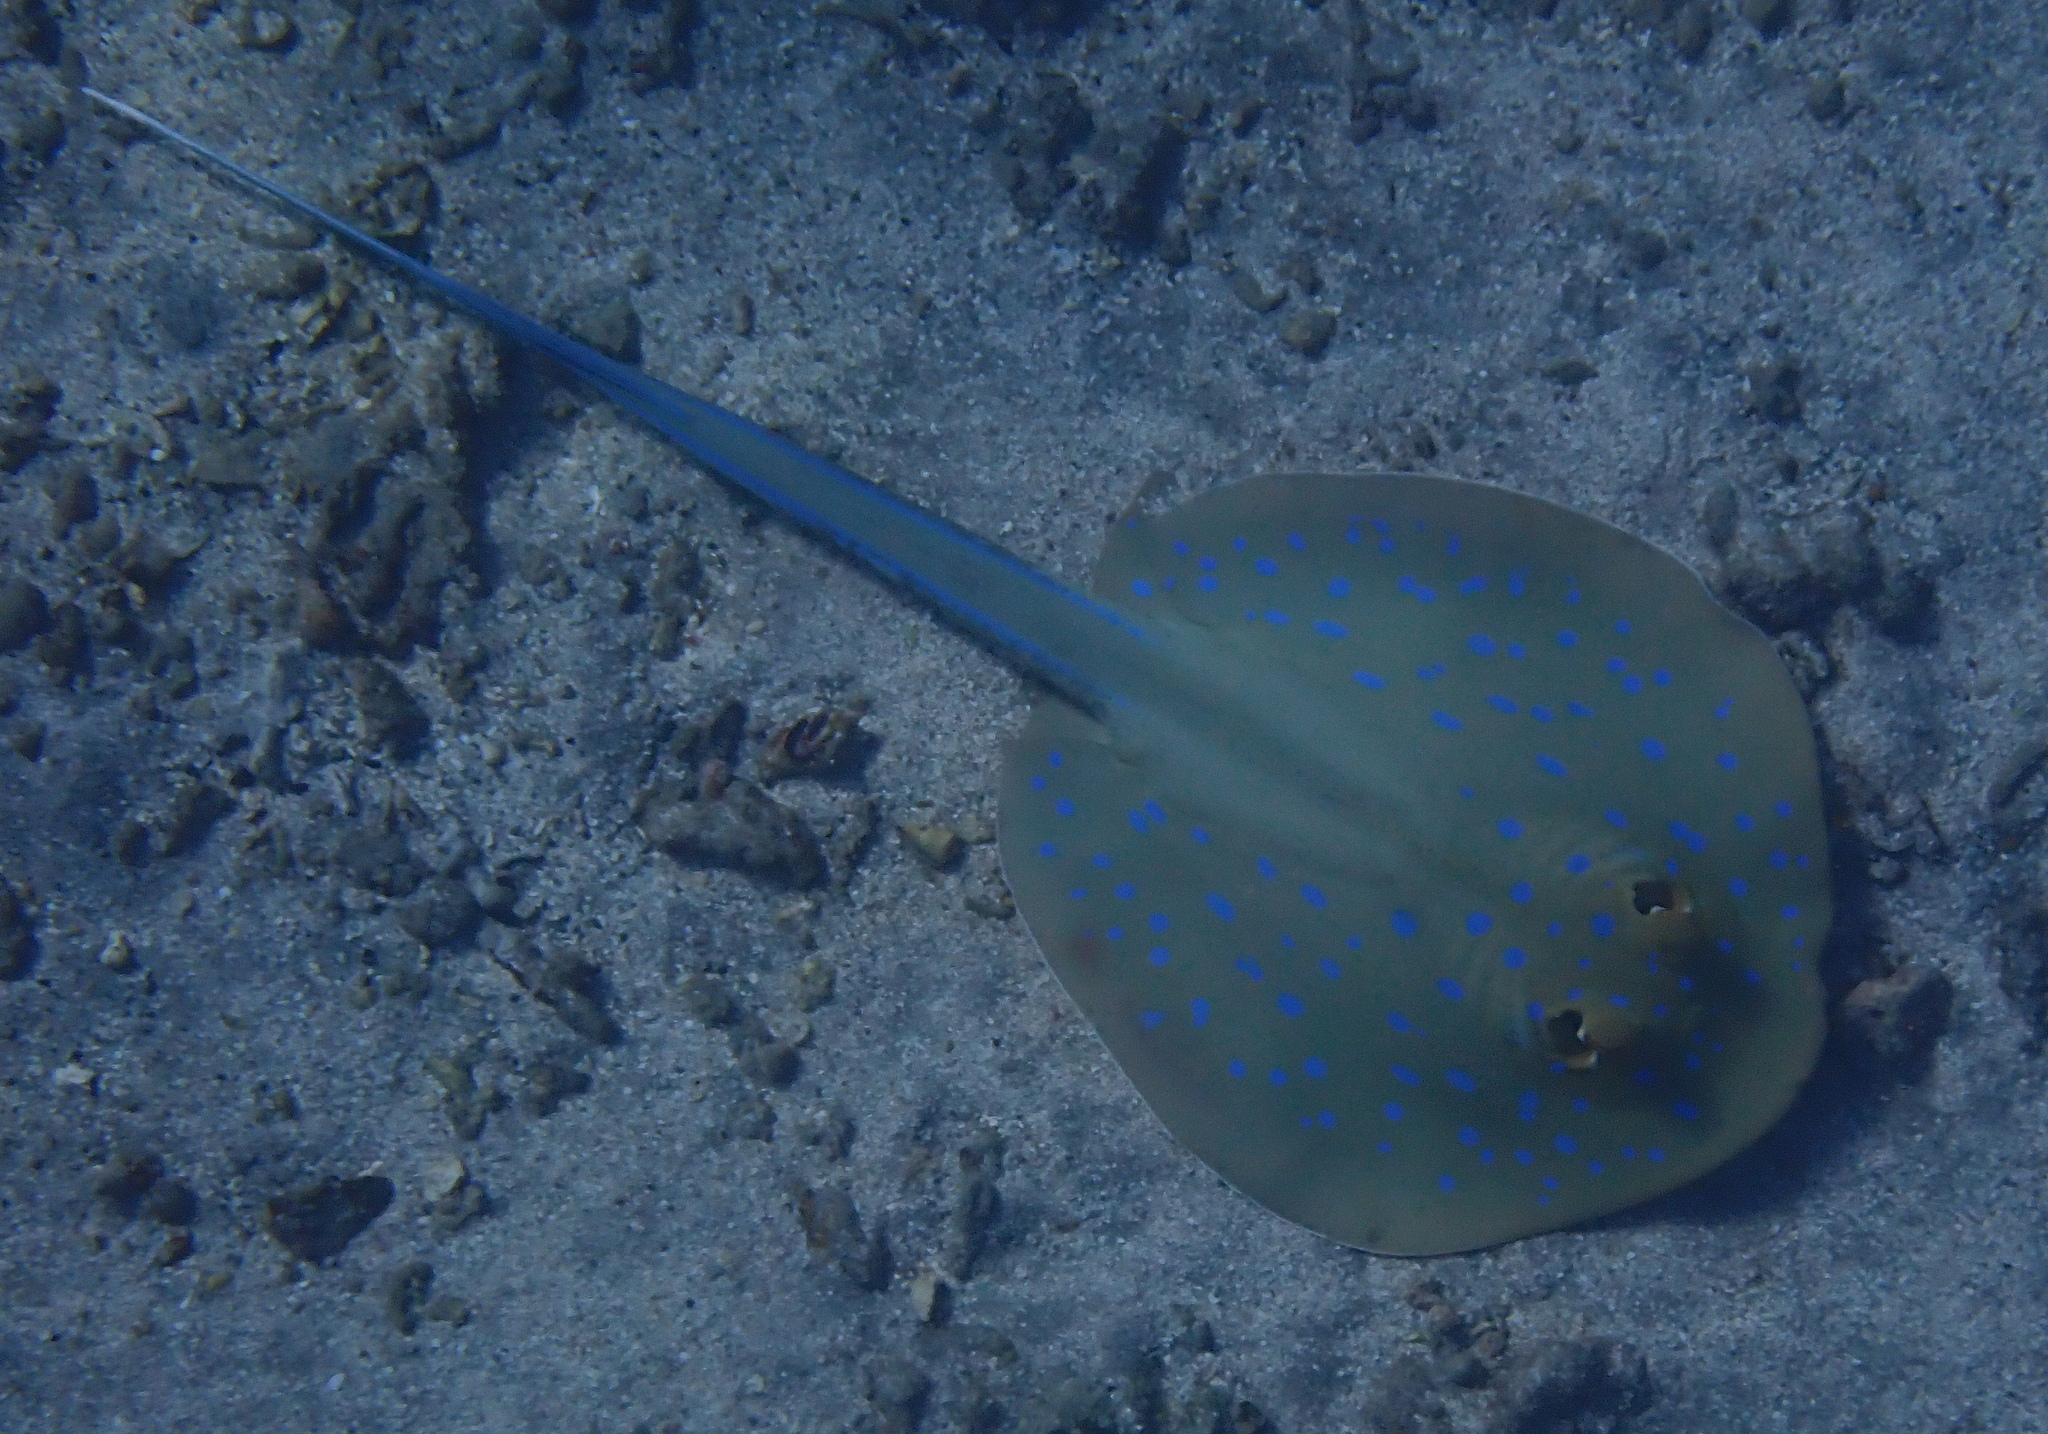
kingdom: Animalia
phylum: Chordata
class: Elasmobranchii
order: Myliobatiformes
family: Dasyatidae
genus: Taeniura
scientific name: Taeniura lymma
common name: Bluespotted ribbontail ray
